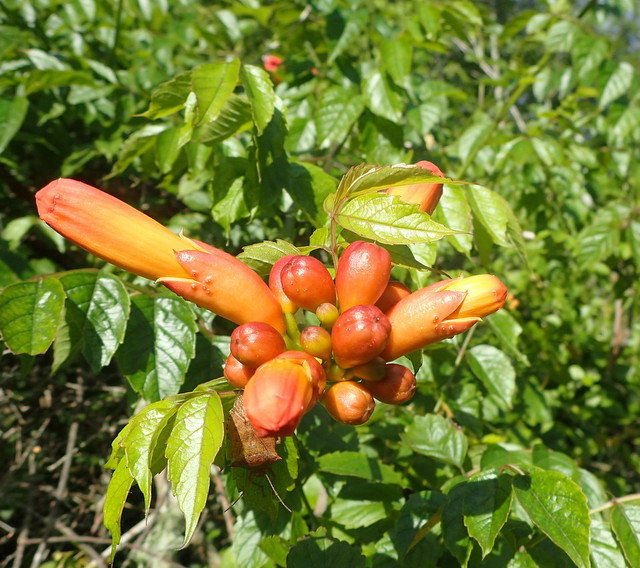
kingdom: Plantae
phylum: Tracheophyta
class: Magnoliopsida
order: Lamiales
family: Bignoniaceae
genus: Campsis
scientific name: Campsis radicans
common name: Trumpet-creeper
